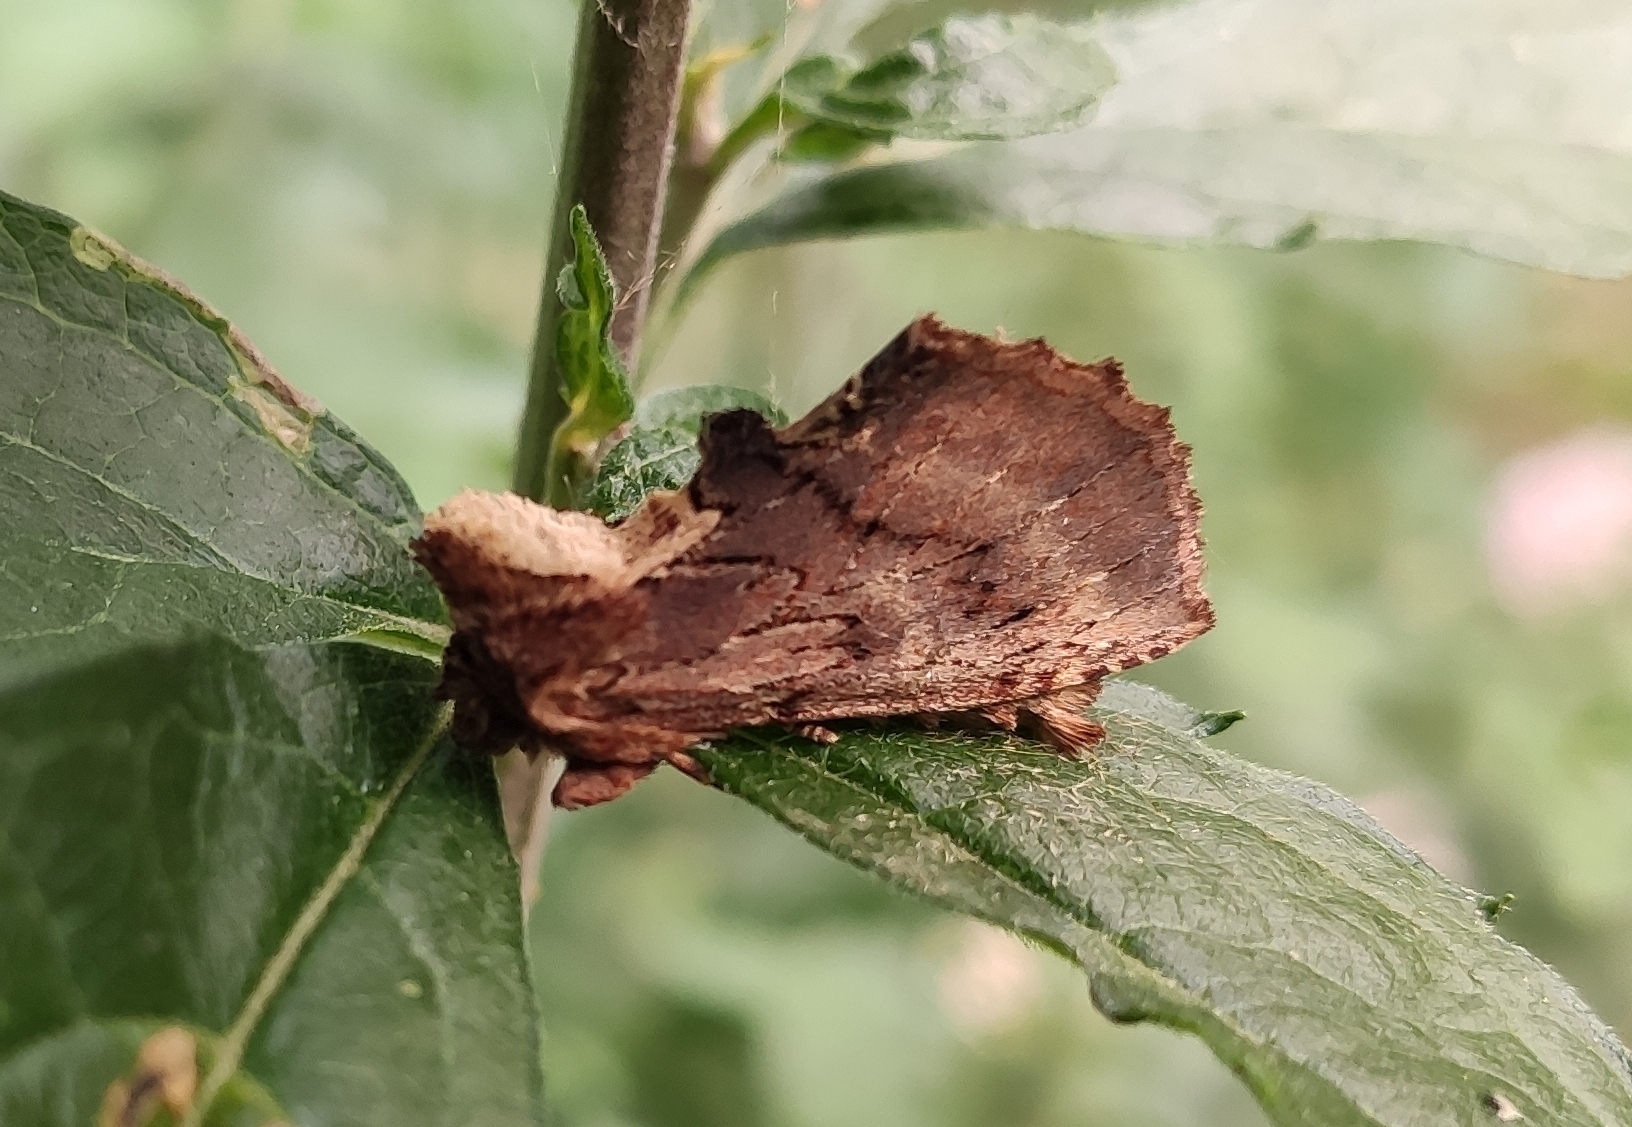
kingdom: Animalia
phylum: Arthropoda
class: Insecta
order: Lepidoptera
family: Notodontidae
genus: Ptilodon
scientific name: Ptilodon capucina
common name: Coxcomb prominent
